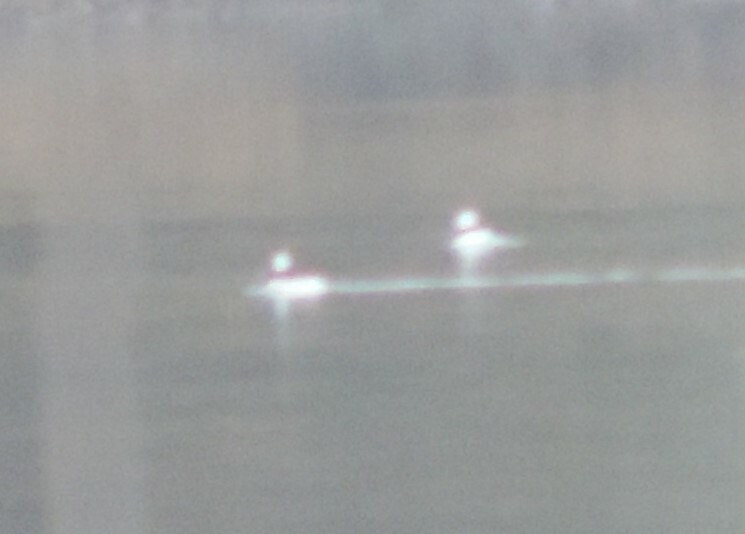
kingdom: Animalia
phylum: Chordata
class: Aves
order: Anseriformes
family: Anatidae
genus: Bucephala
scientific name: Bucephala albeola
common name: Bufflehead
